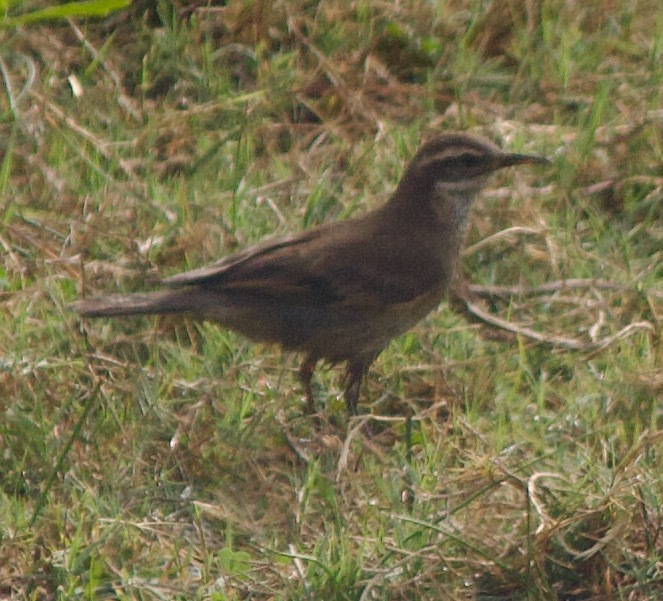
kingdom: Animalia
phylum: Chordata
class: Aves
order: Passeriformes
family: Furnariidae
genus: Cinclodes
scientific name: Cinclodes fuscus
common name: Buff-winged cinclodes
